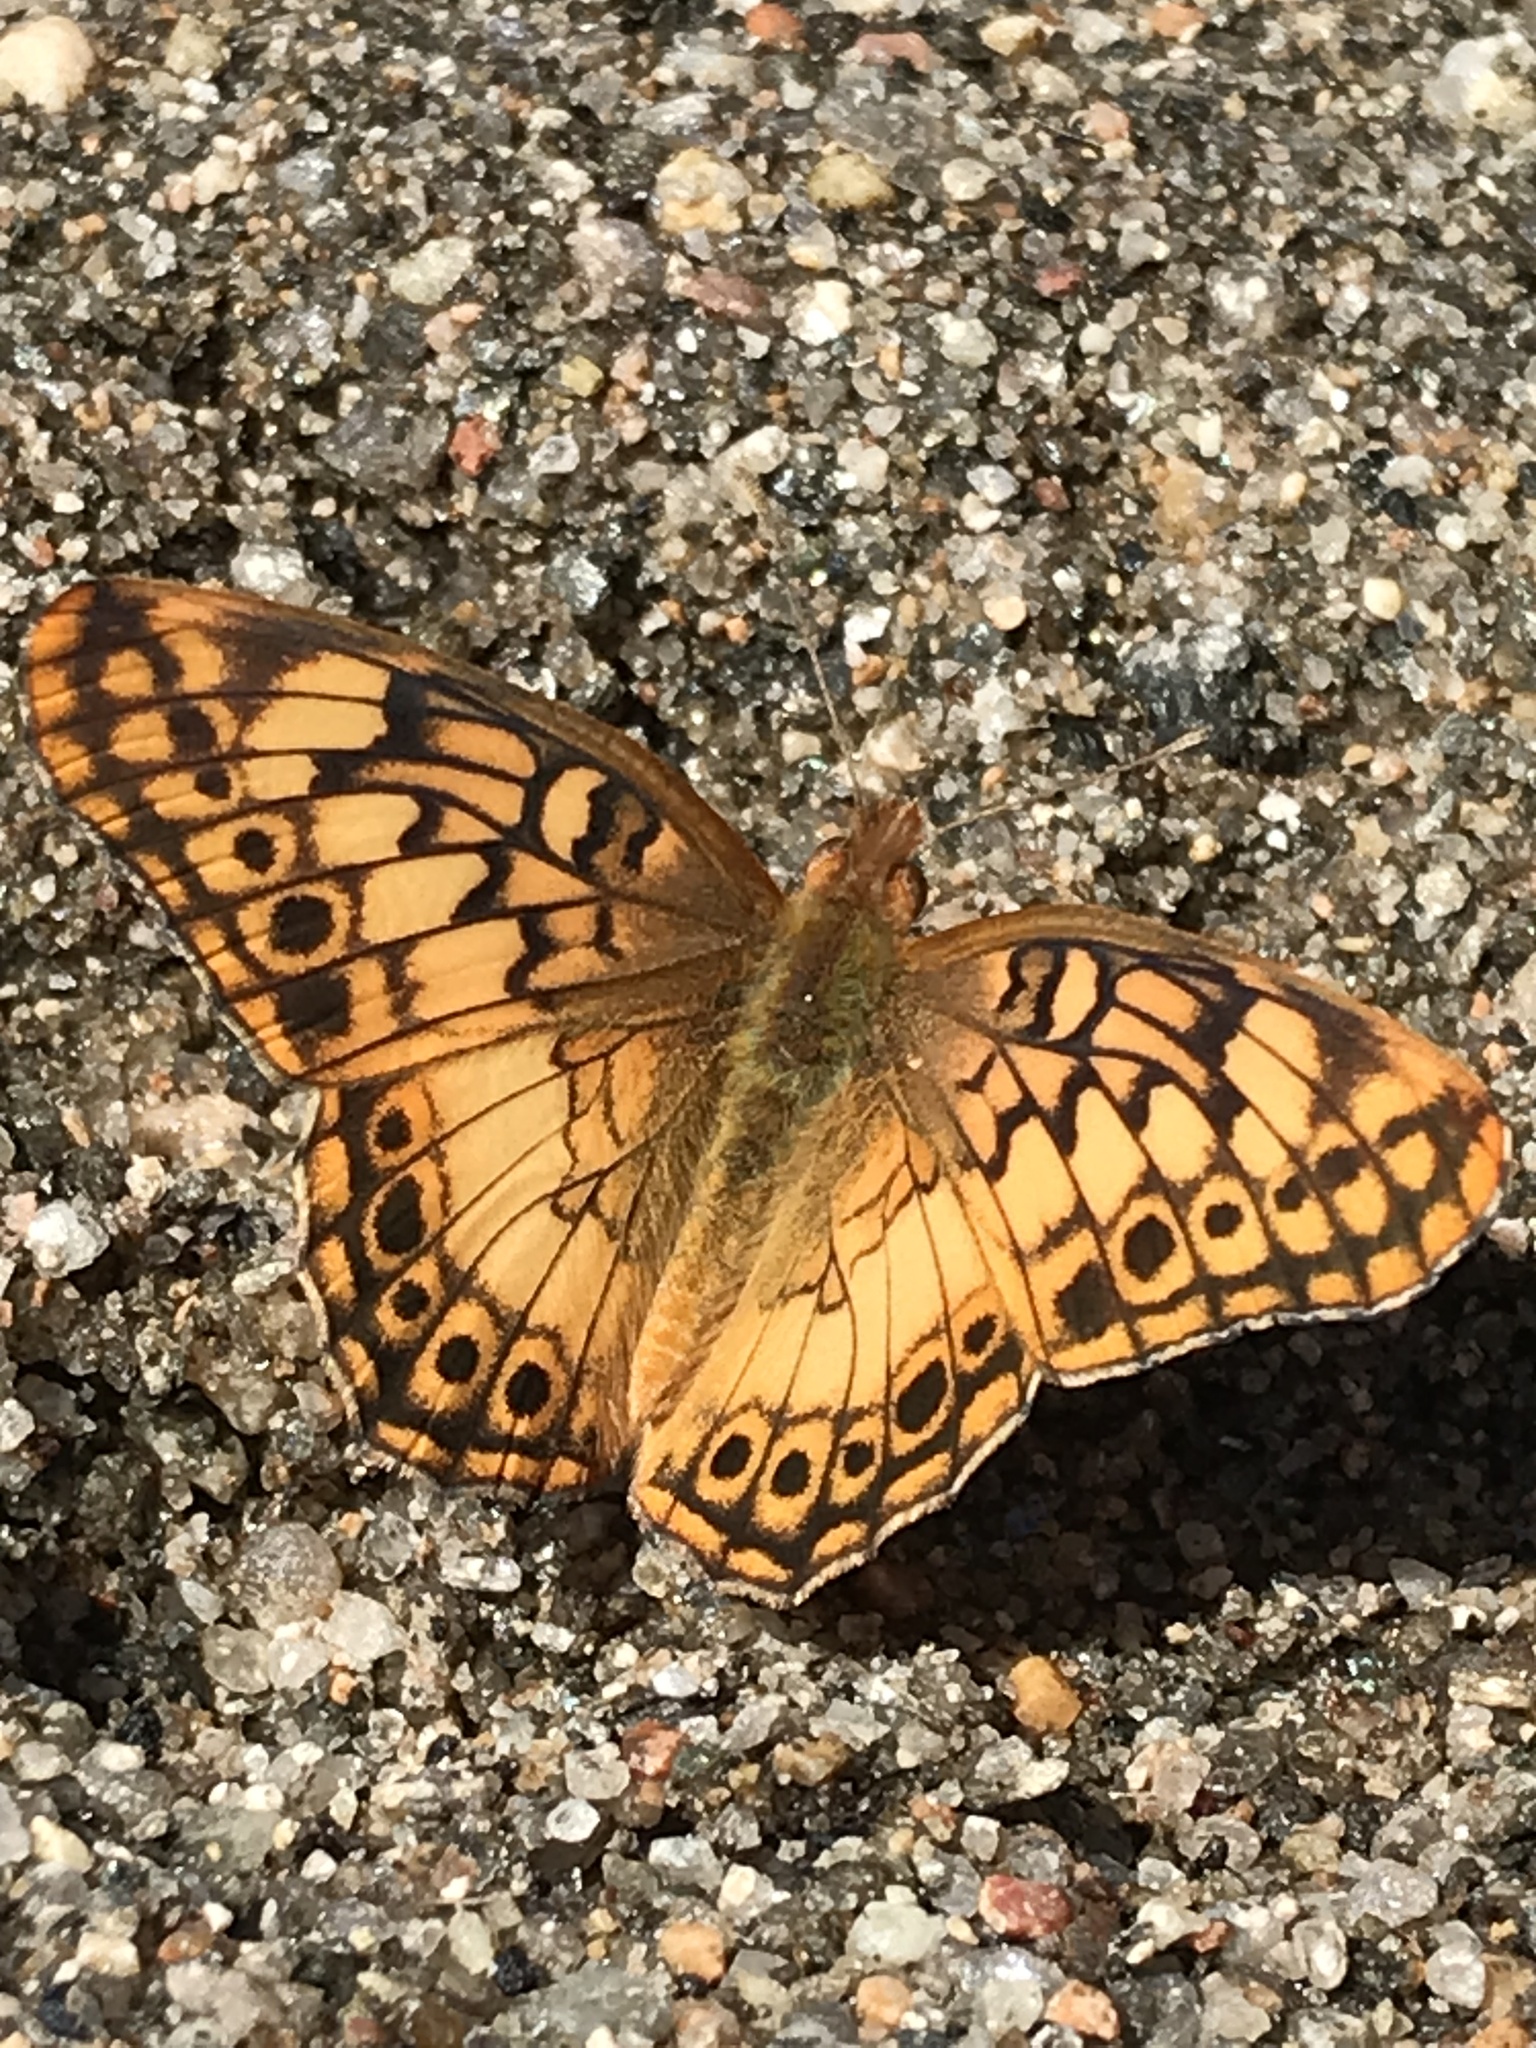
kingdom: Animalia
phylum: Arthropoda
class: Insecta
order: Lepidoptera
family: Nymphalidae
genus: Euptoieta
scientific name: Euptoieta hortensia
